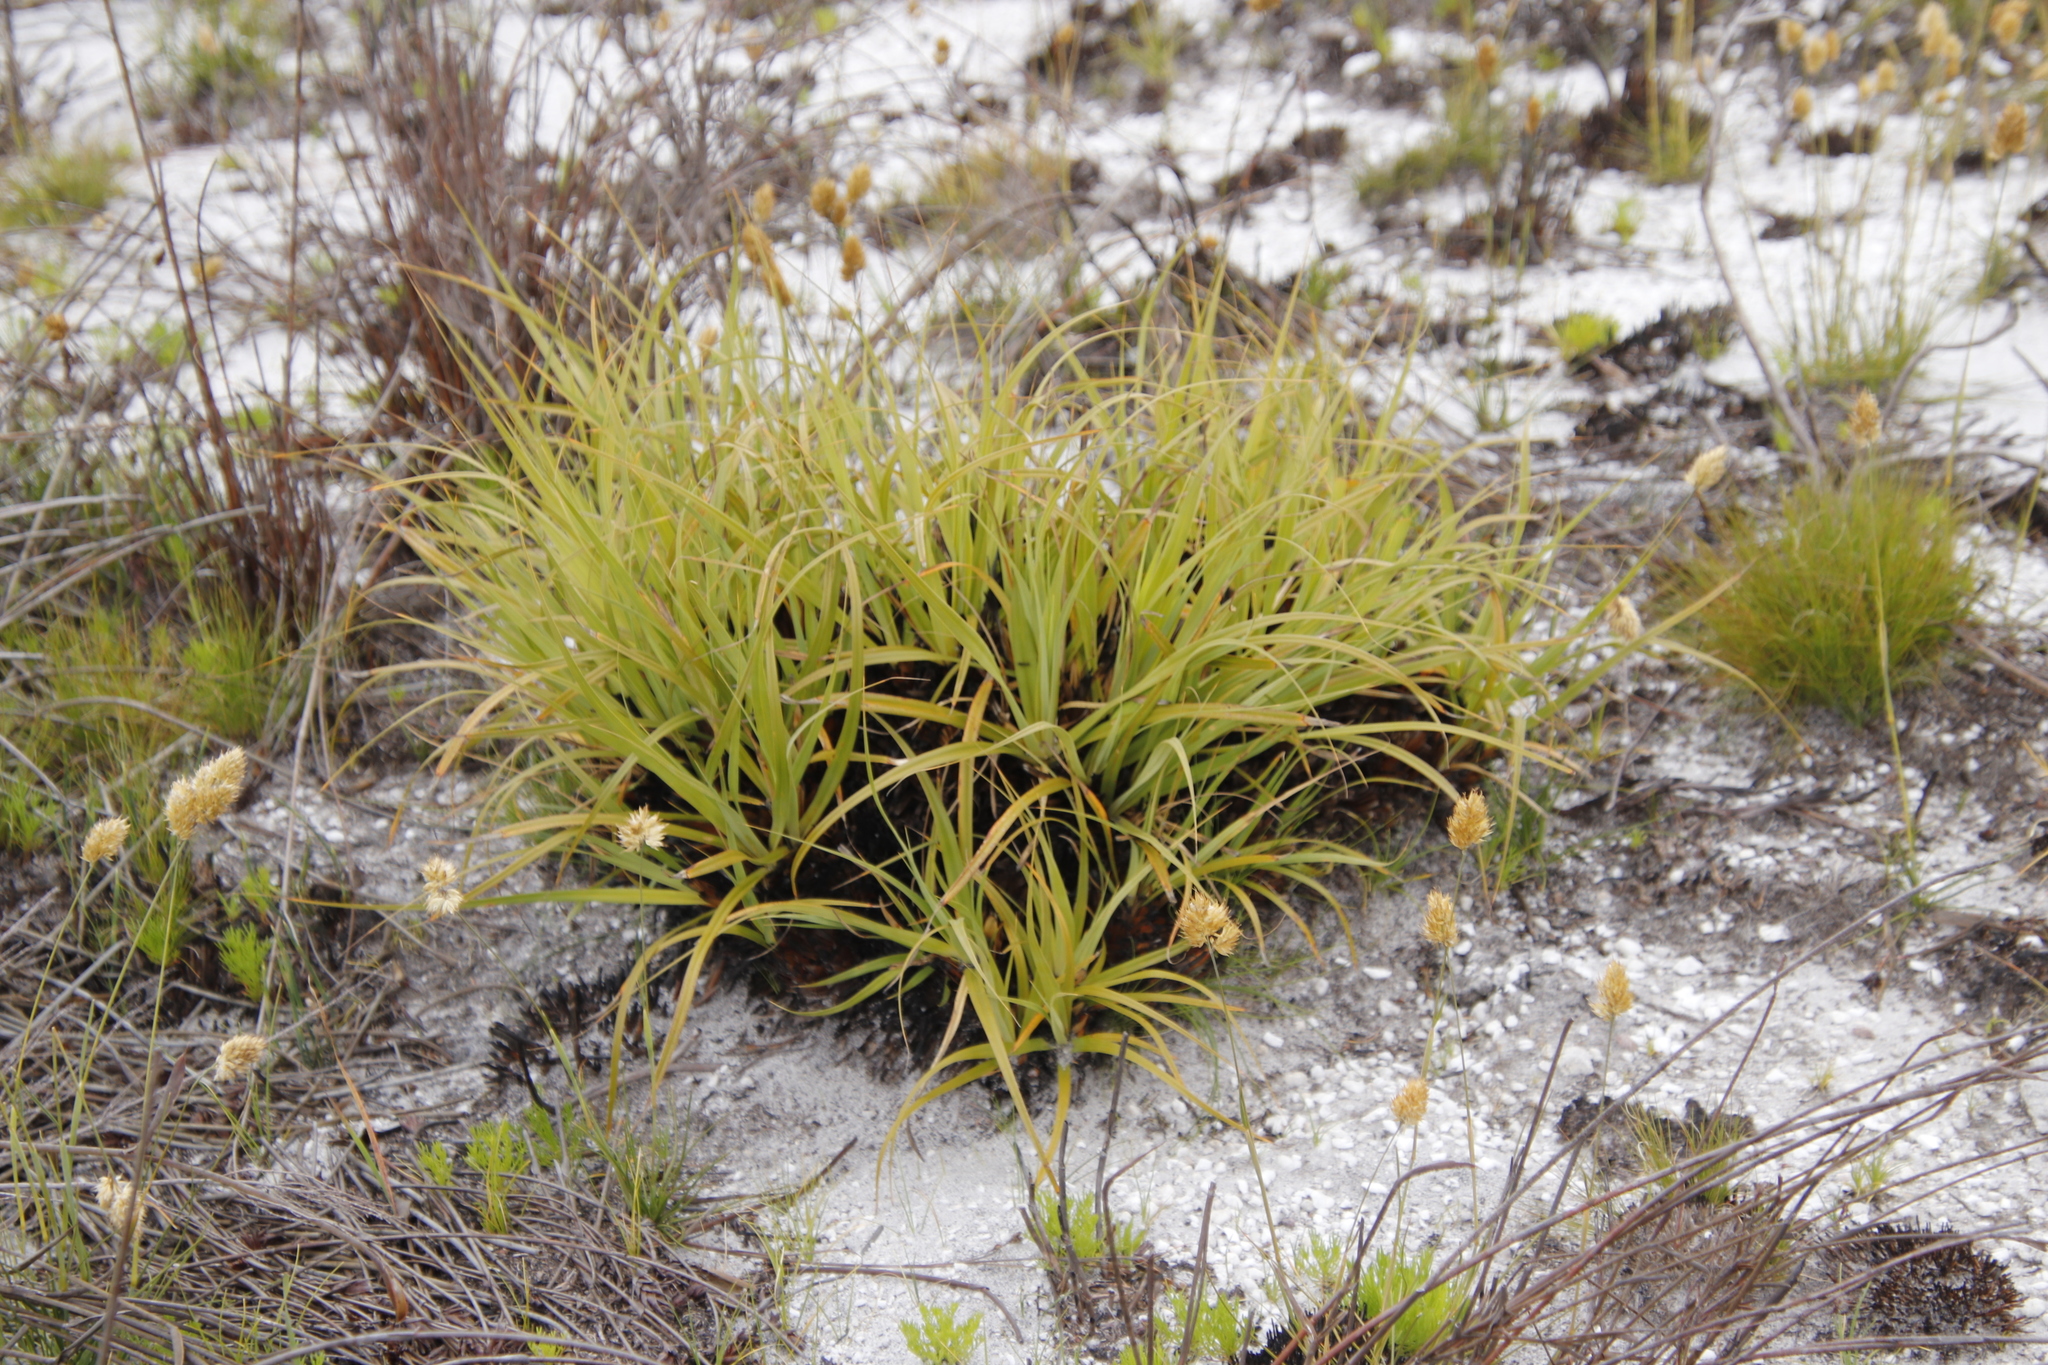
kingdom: Plantae
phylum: Tracheophyta
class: Liliopsida
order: Poales
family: Cyperaceae
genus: Tetraria
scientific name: Tetraria thermalis
